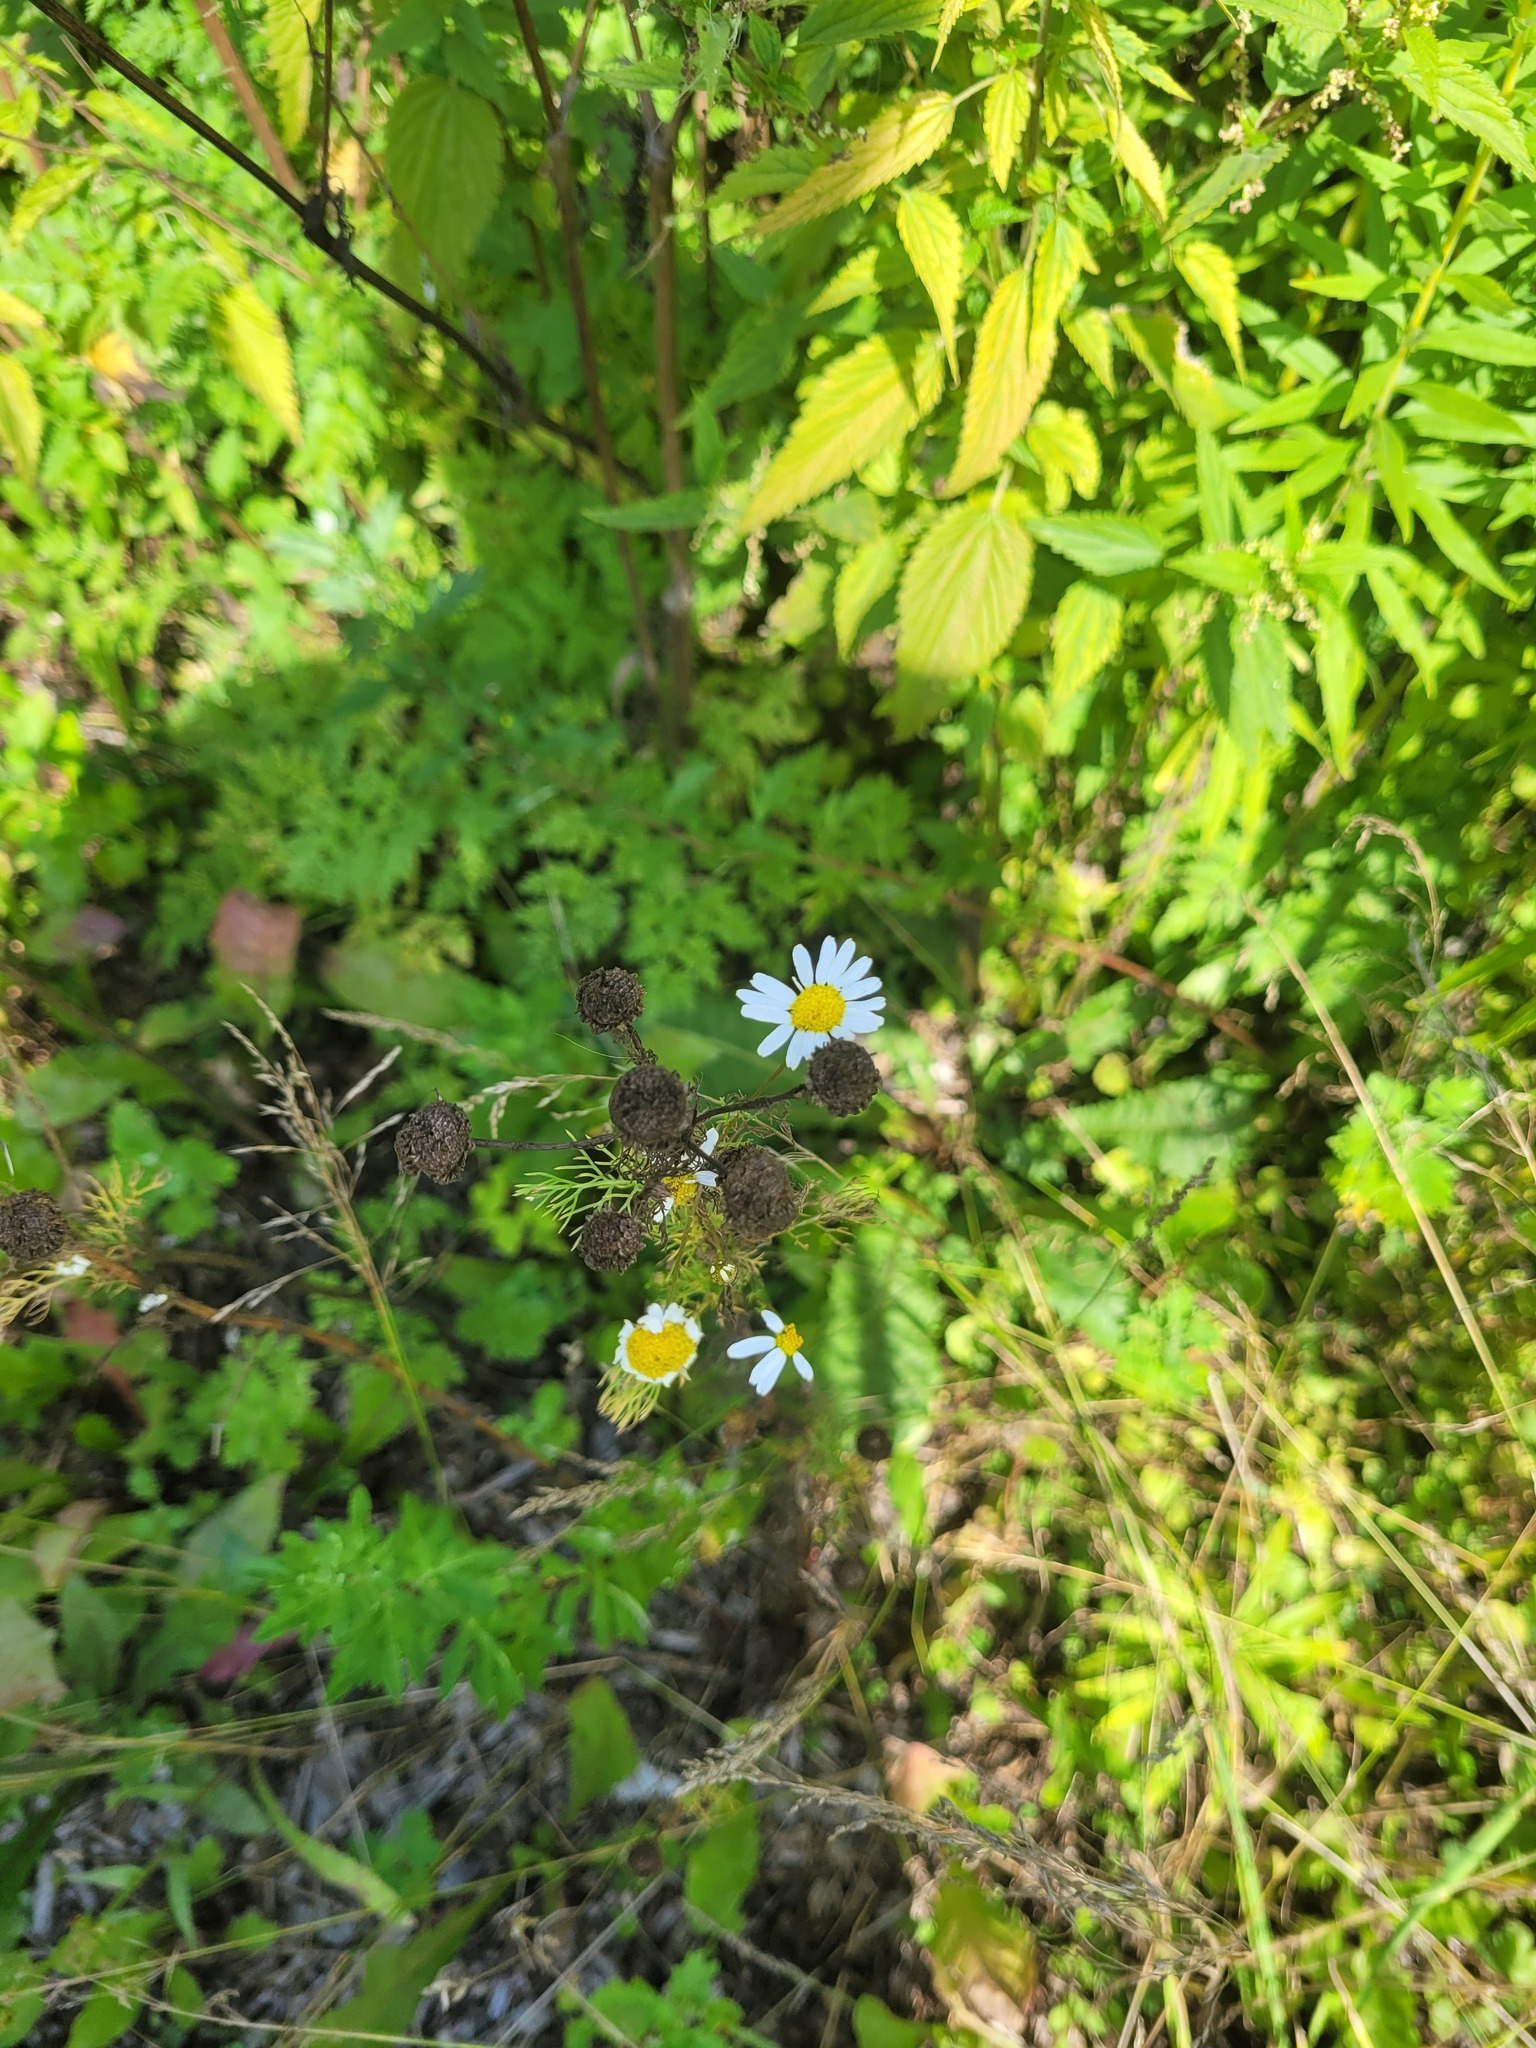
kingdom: Plantae
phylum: Tracheophyta
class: Magnoliopsida
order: Asterales
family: Asteraceae
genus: Tripleurospermum
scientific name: Tripleurospermum inodorum
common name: Scentless mayweed
